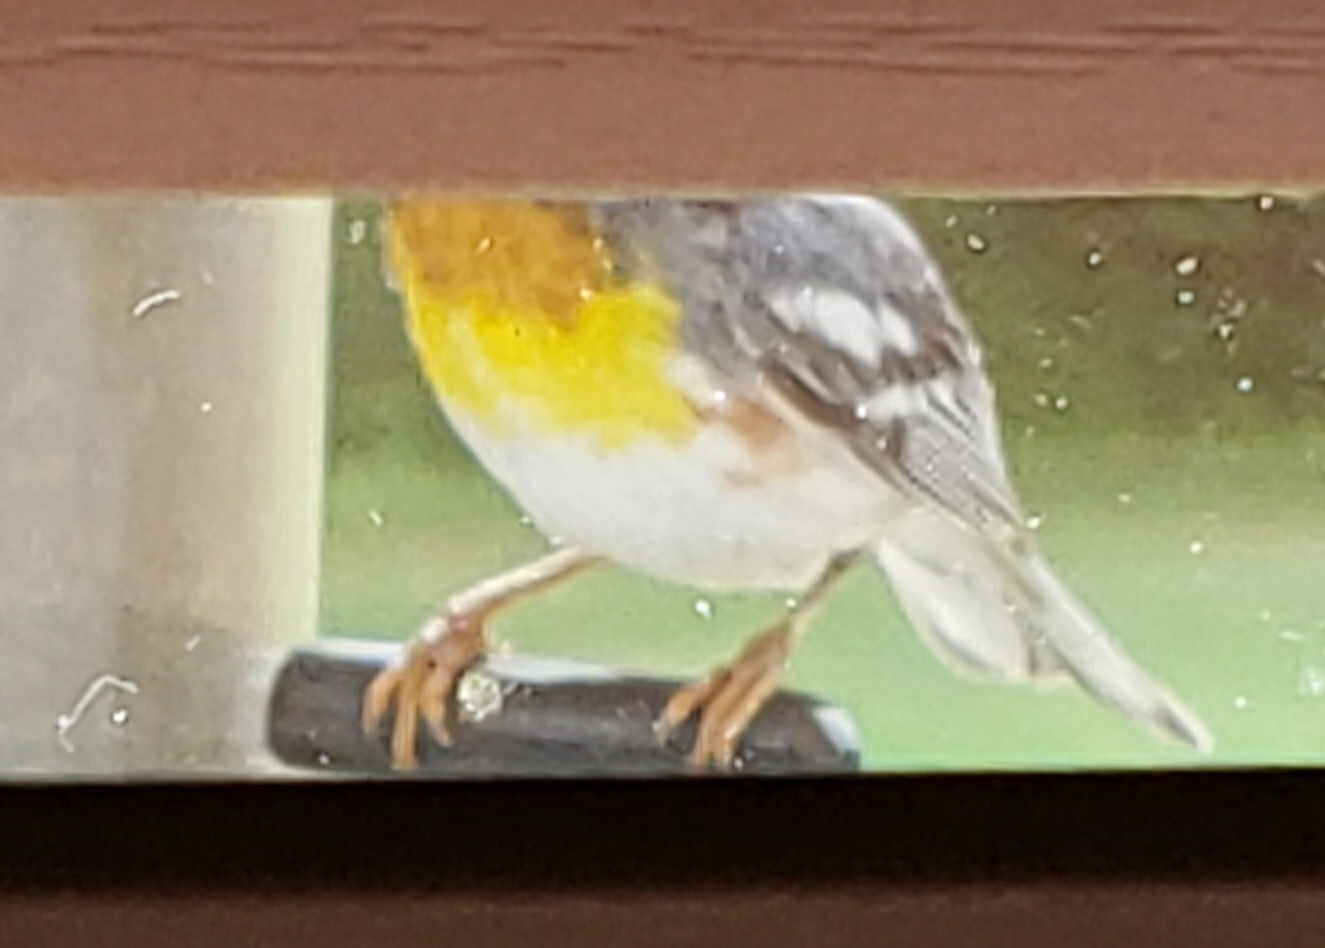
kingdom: Animalia
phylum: Chordata
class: Aves
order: Passeriformes
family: Parulidae
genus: Setophaga
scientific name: Setophaga americana
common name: Northern parula
